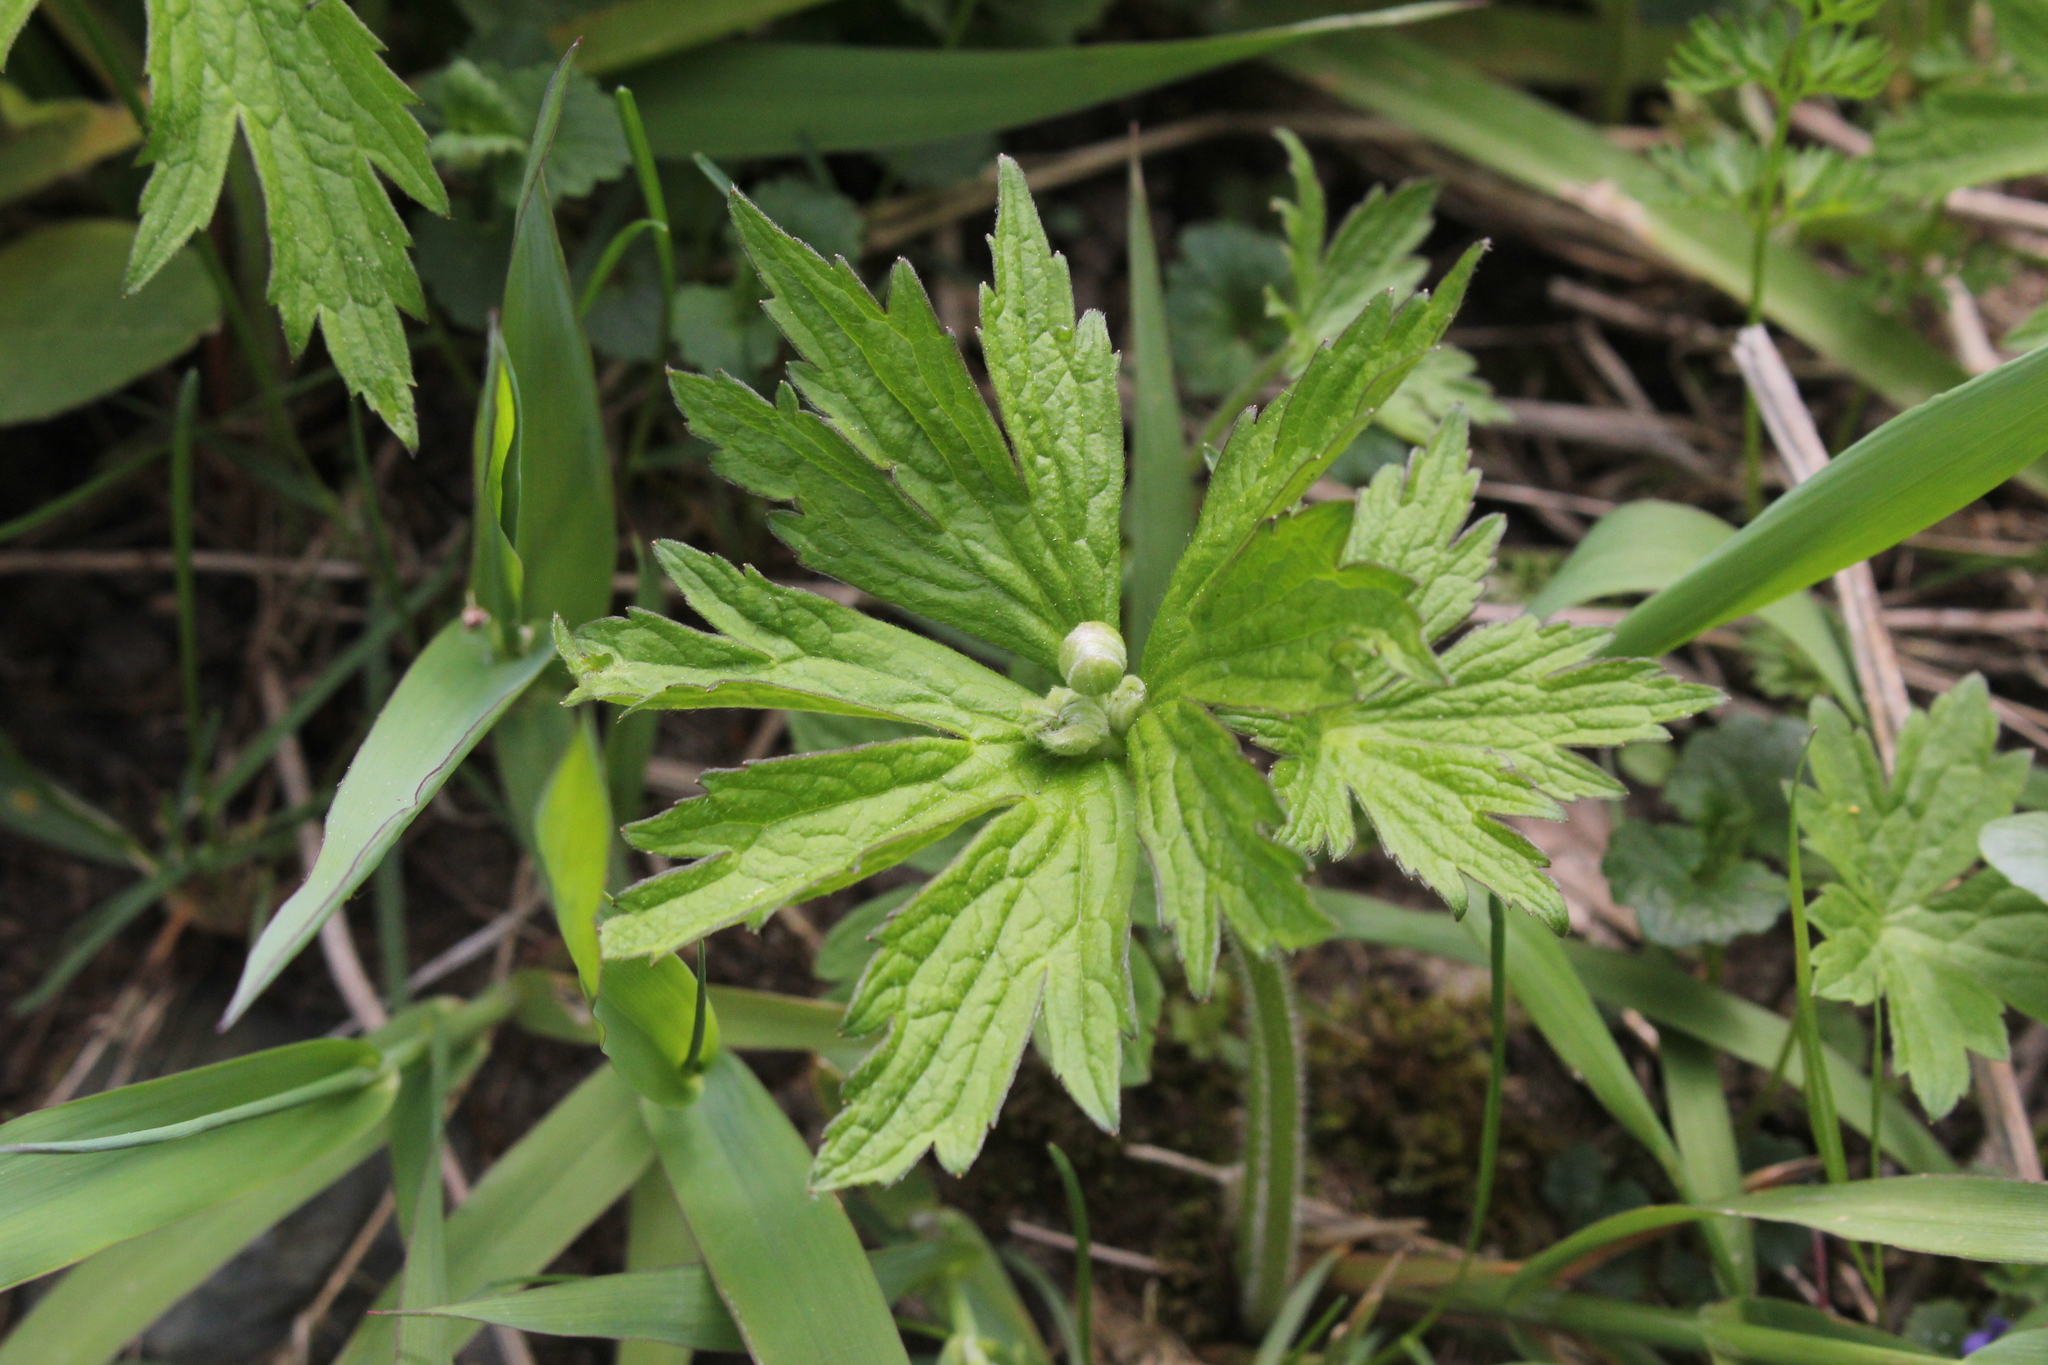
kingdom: Plantae
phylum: Tracheophyta
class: Magnoliopsida
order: Ranunculales
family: Ranunculaceae
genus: Anemonastrum
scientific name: Anemonastrum canadense
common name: Canada anemone
